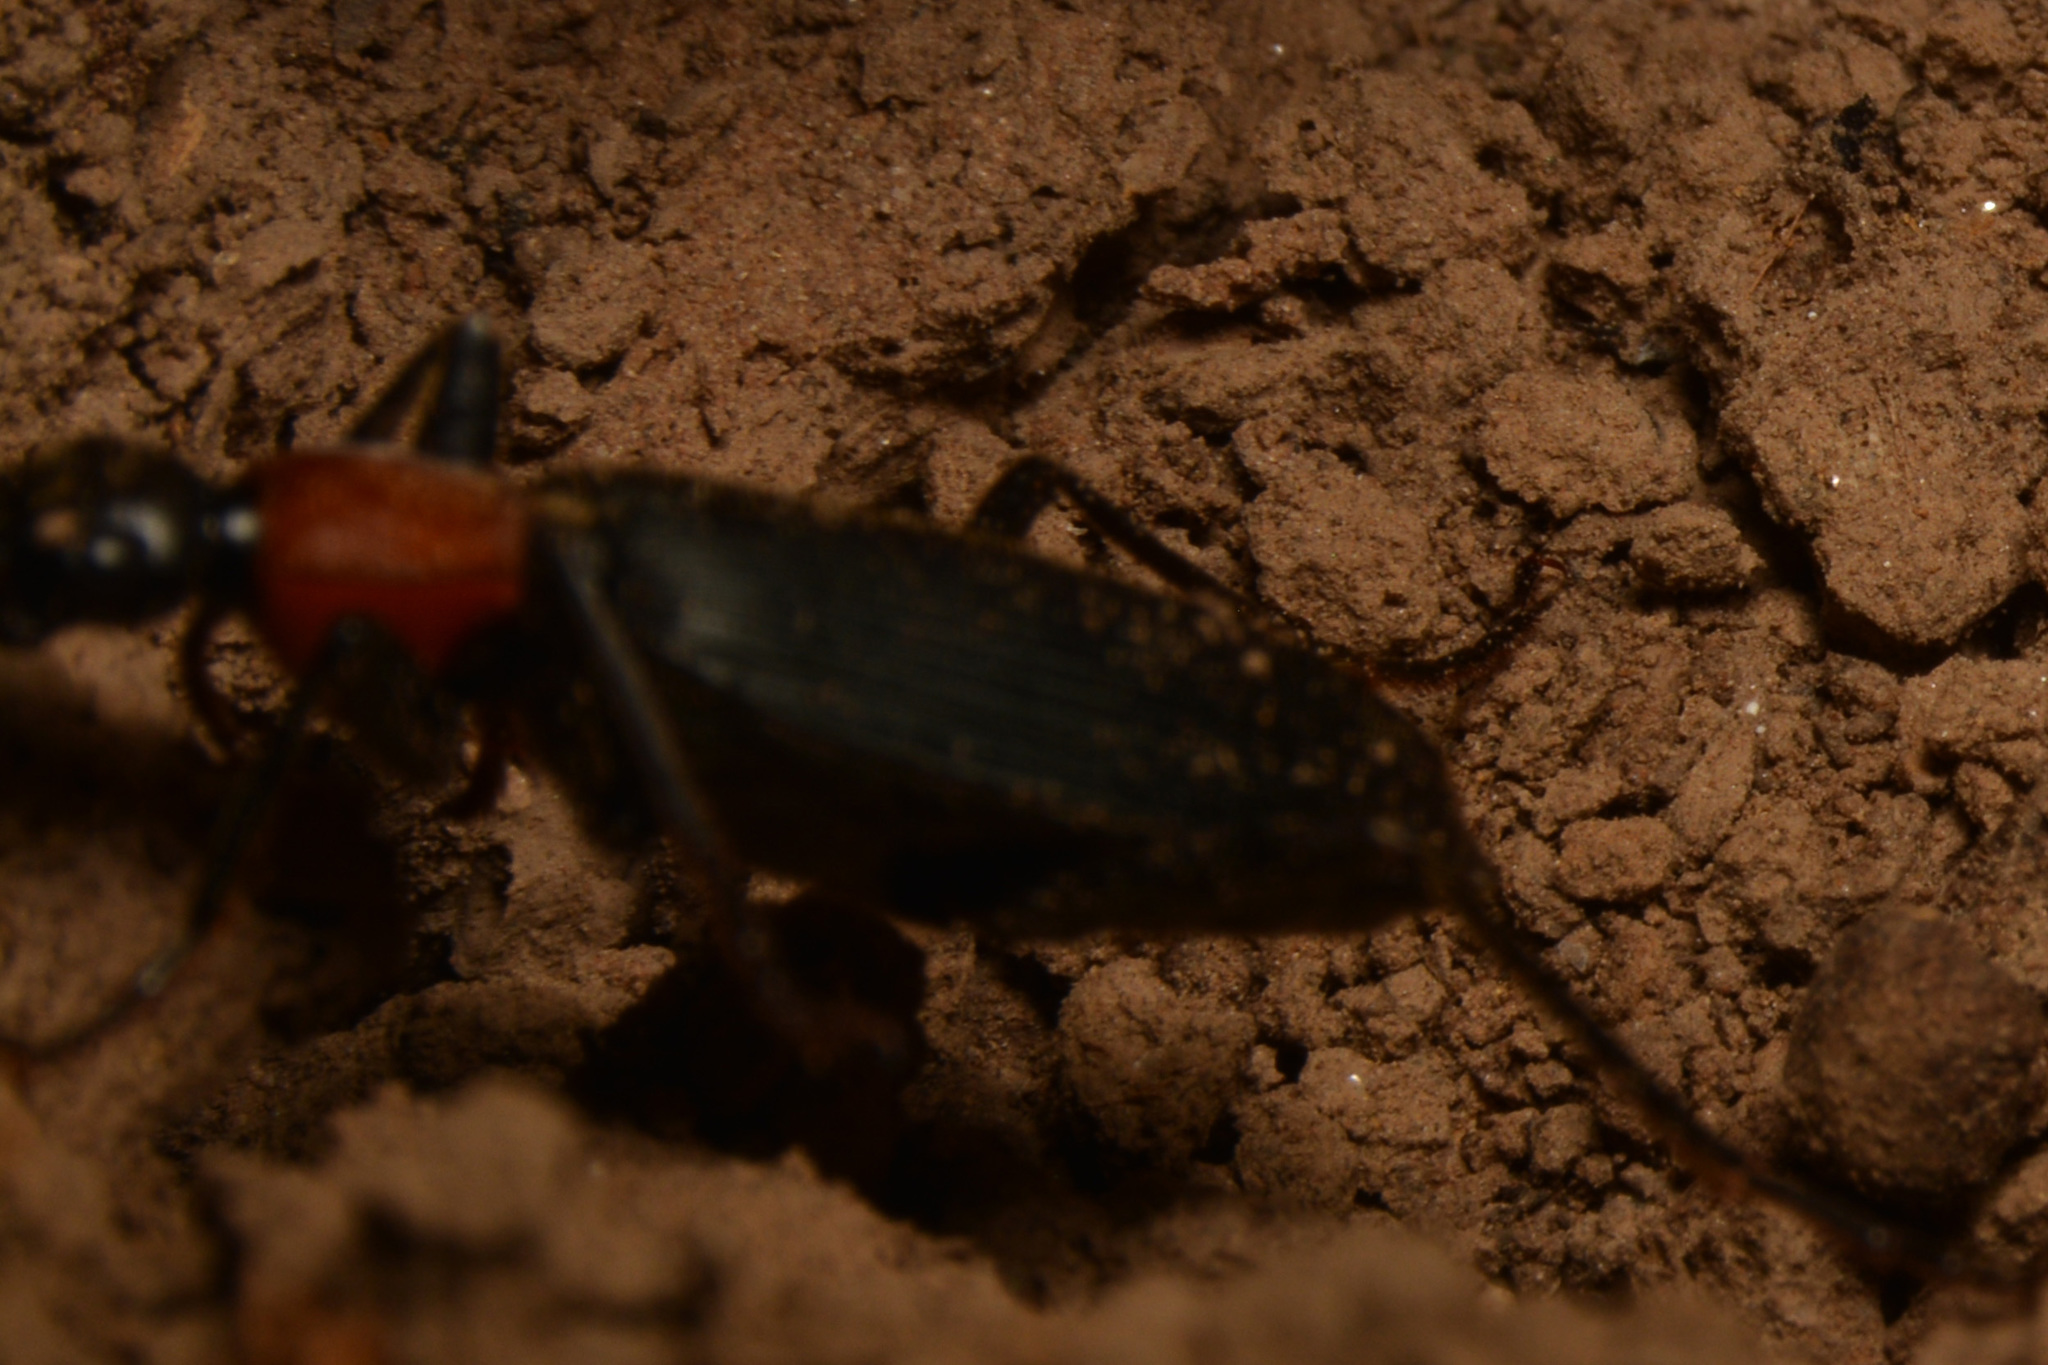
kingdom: Animalia
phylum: Arthropoda
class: Insecta
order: Coleoptera
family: Carabidae
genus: Galerita
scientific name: Galerita collaris
